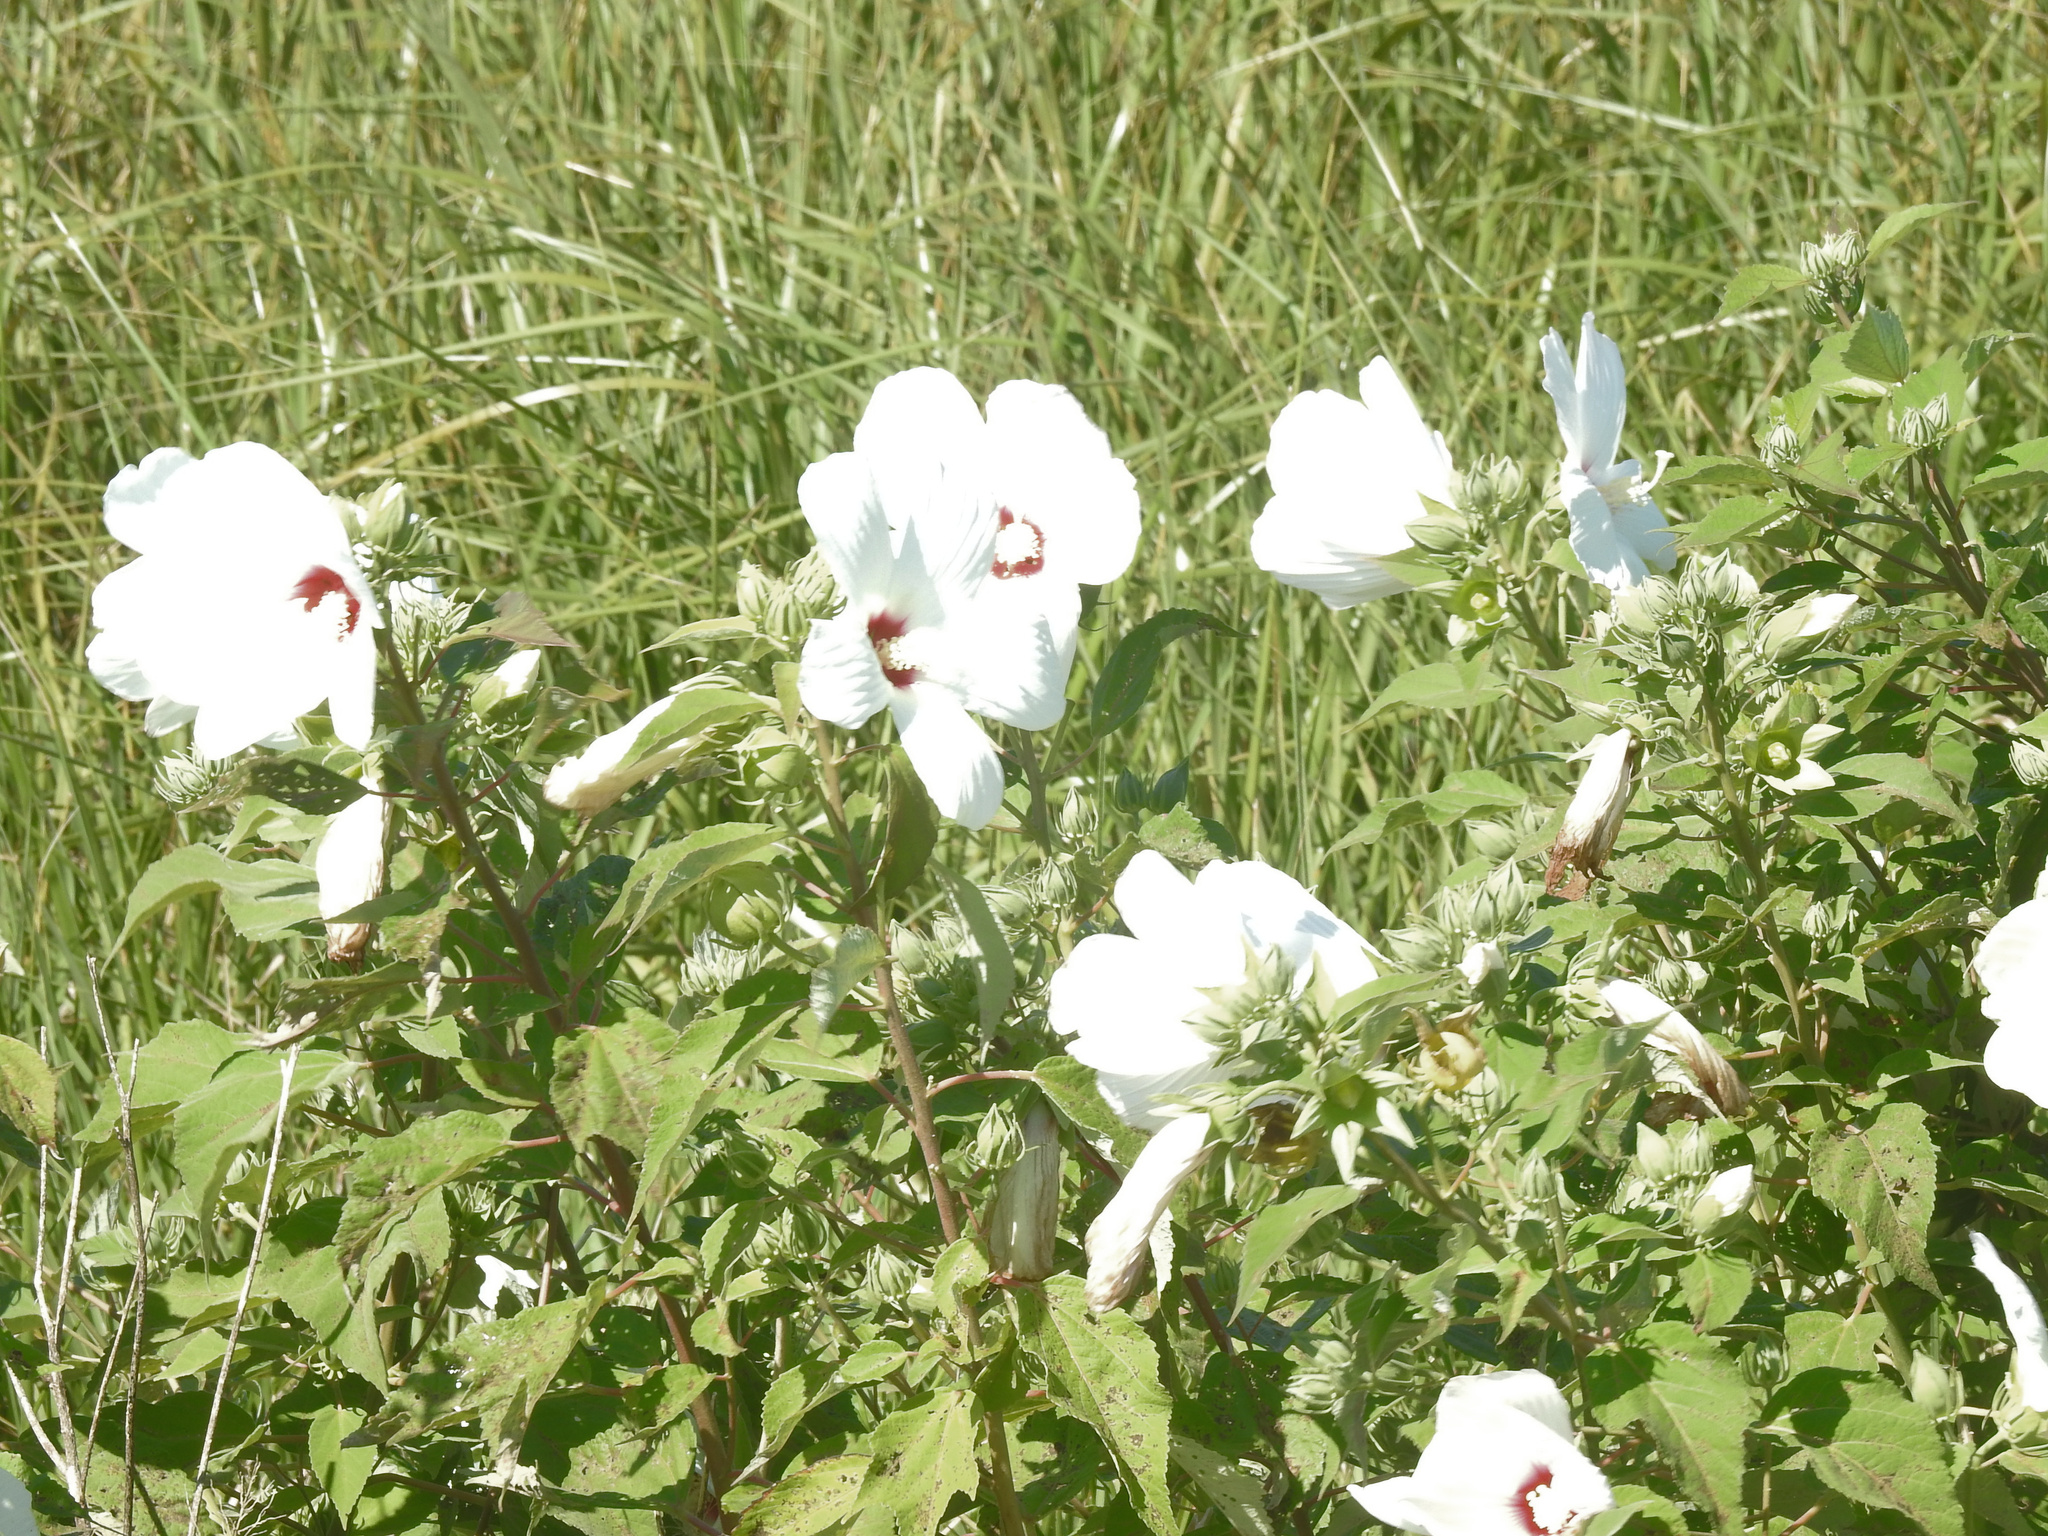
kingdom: Plantae
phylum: Tracheophyta
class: Magnoliopsida
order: Malvales
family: Malvaceae
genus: Hibiscus
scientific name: Hibiscus moscheutos
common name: Common rose-mallow
